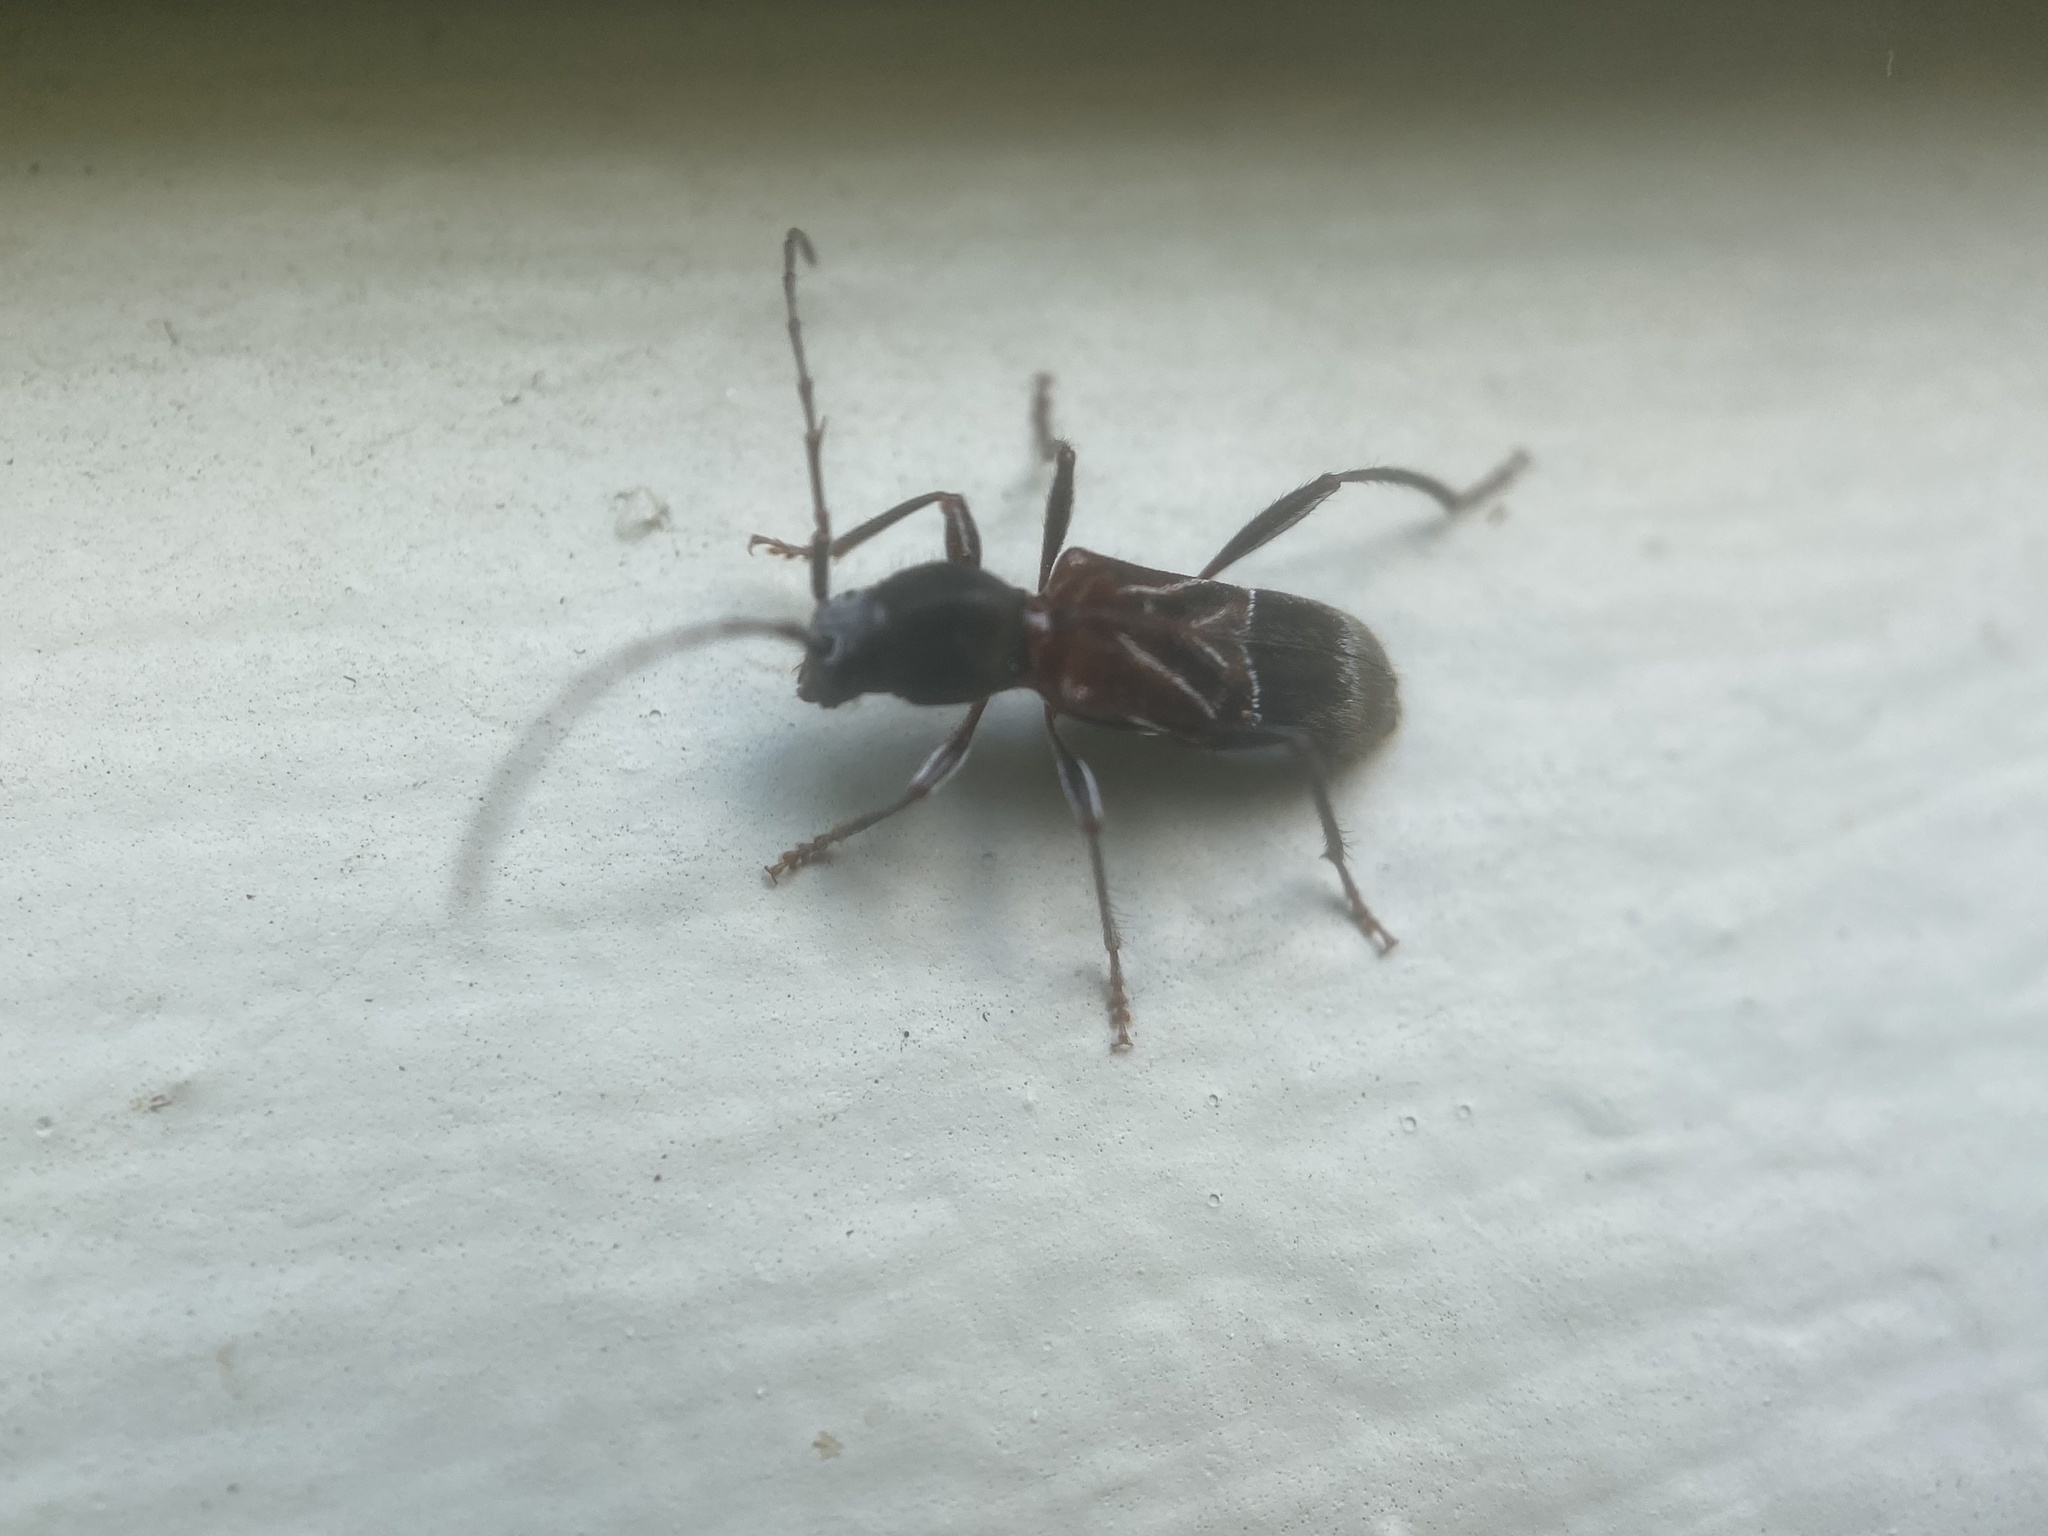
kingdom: Animalia
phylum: Arthropoda
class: Insecta
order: Coleoptera
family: Cerambycidae
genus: Cyrtophorus
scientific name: Cyrtophorus verrucosus
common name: Ant-like longhorn beetle
